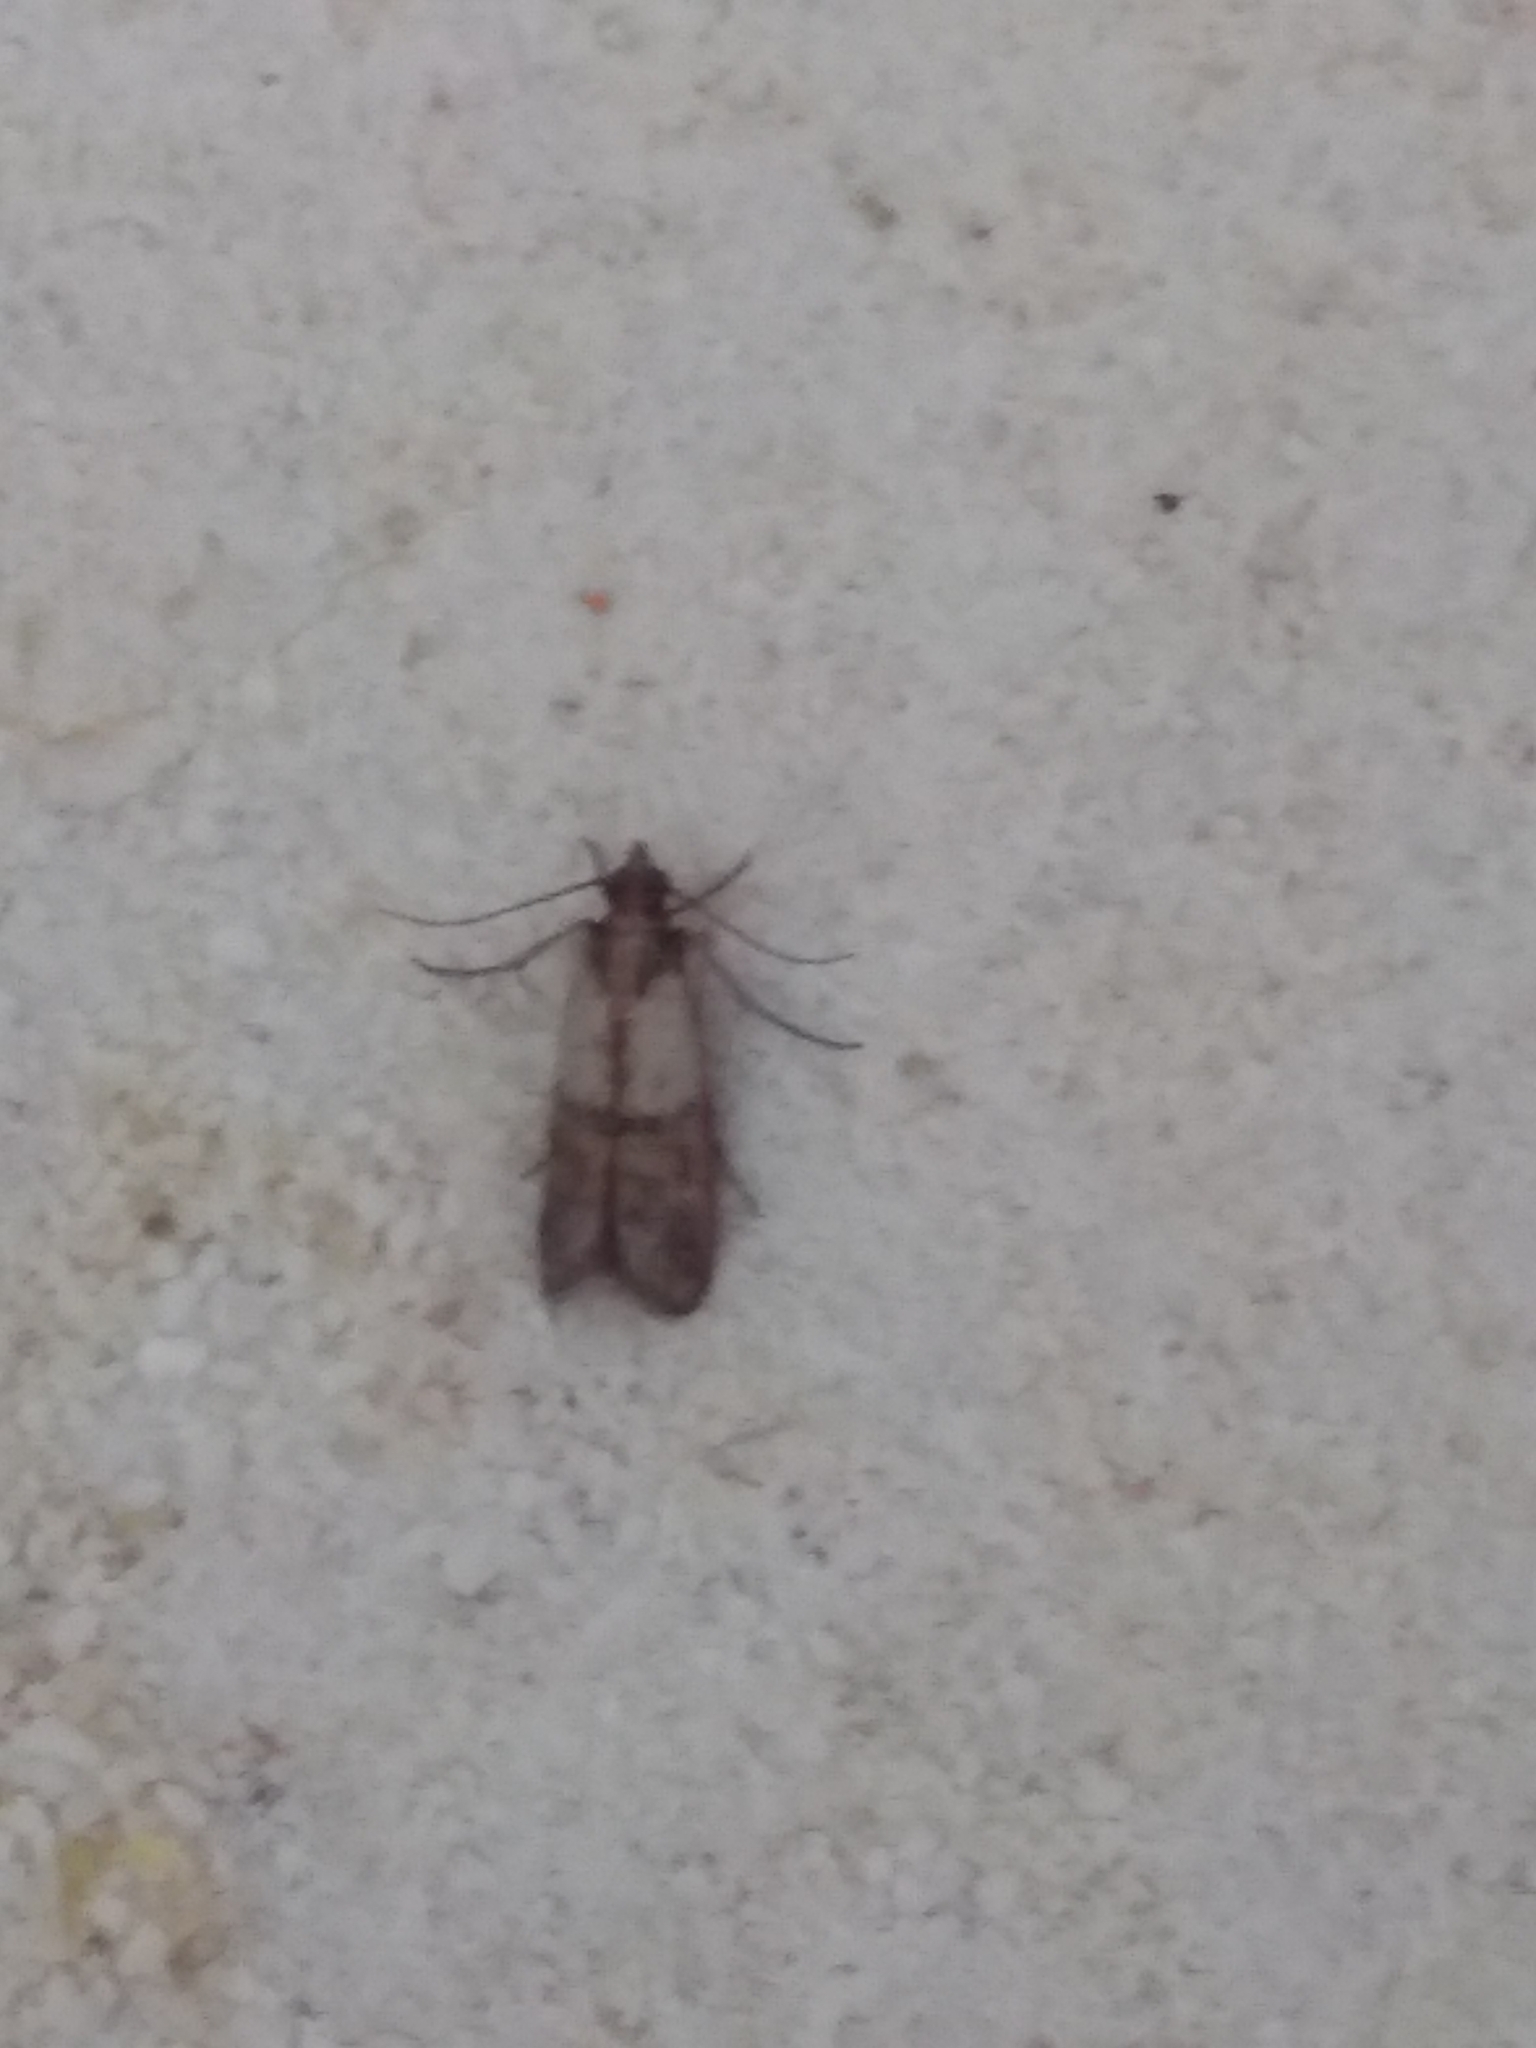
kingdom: Animalia
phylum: Arthropoda
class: Insecta
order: Lepidoptera
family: Pyralidae
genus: Plodia
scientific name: Plodia interpunctella
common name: Indian meal moth
